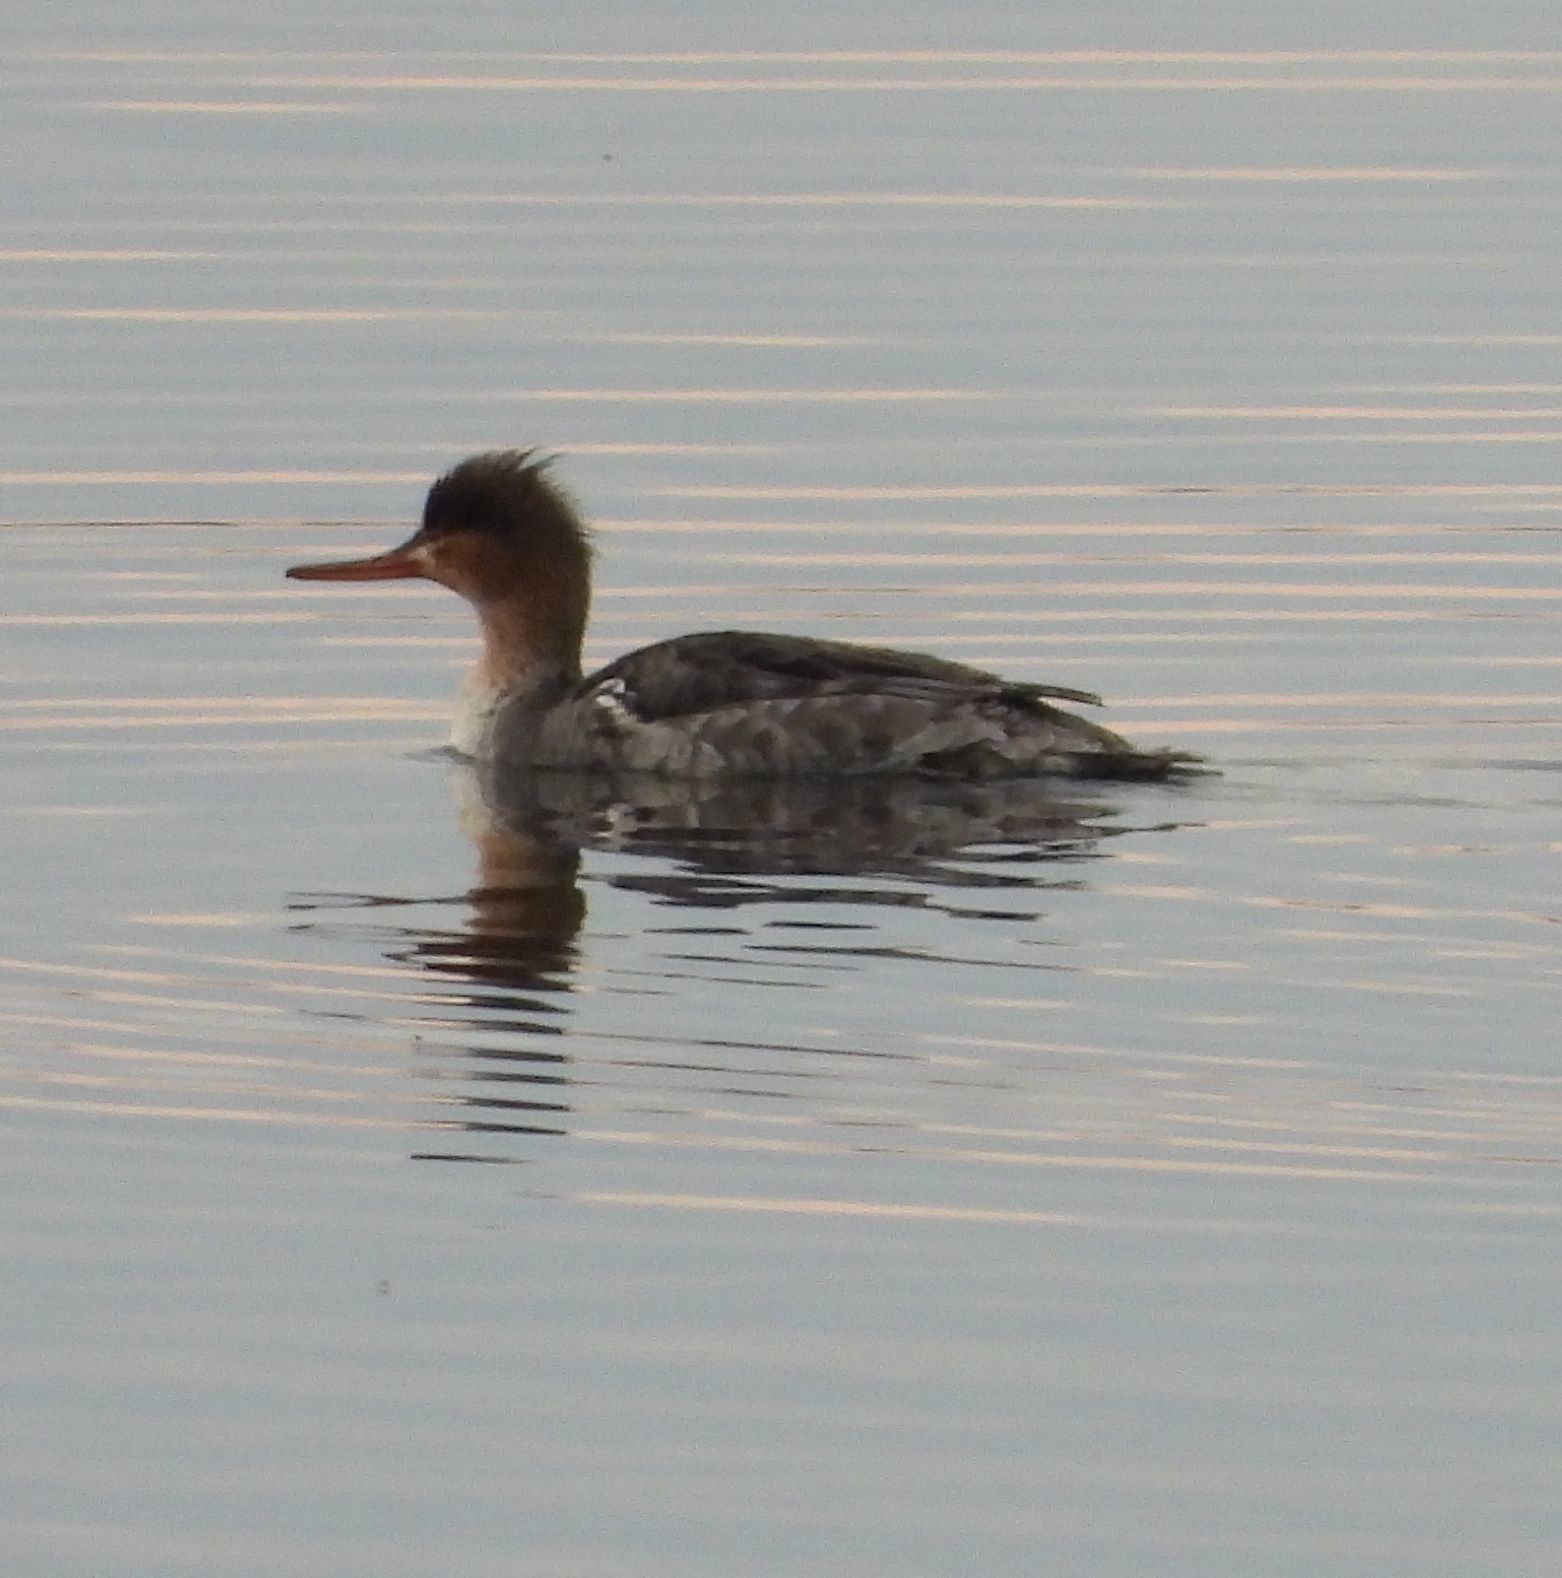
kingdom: Animalia
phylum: Chordata
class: Aves
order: Anseriformes
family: Anatidae
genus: Mergus
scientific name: Mergus serrator
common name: Red-breasted merganser
